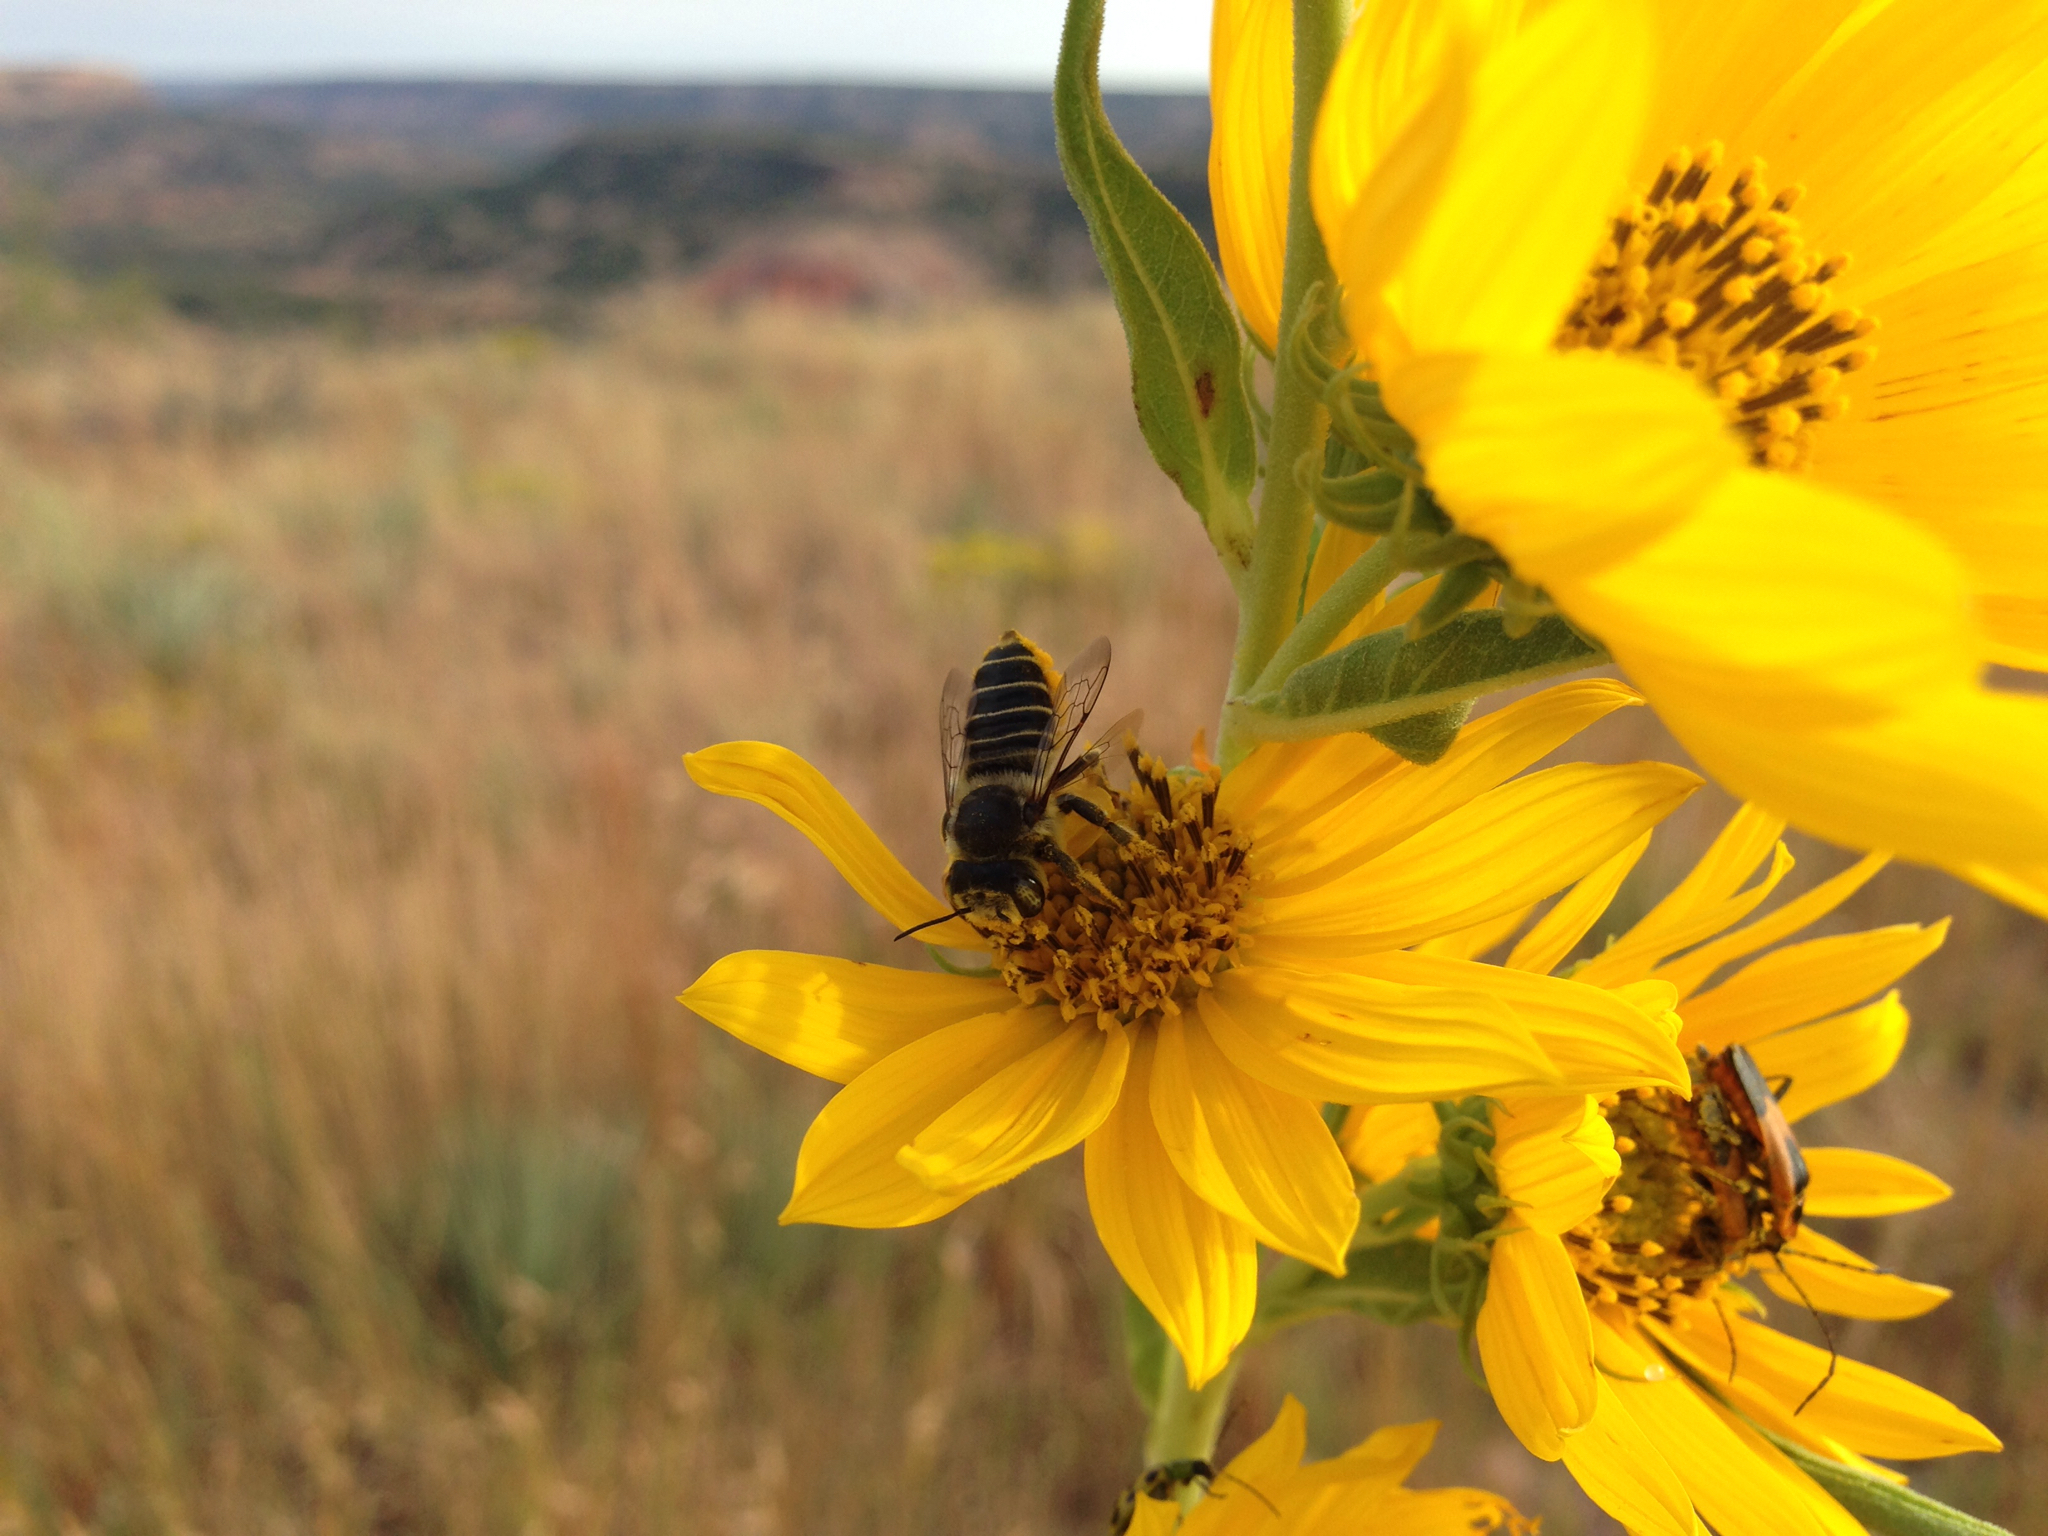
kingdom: Animalia
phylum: Arthropoda
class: Insecta
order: Hymenoptera
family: Megachilidae
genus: Megachile
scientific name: Megachile parallela
